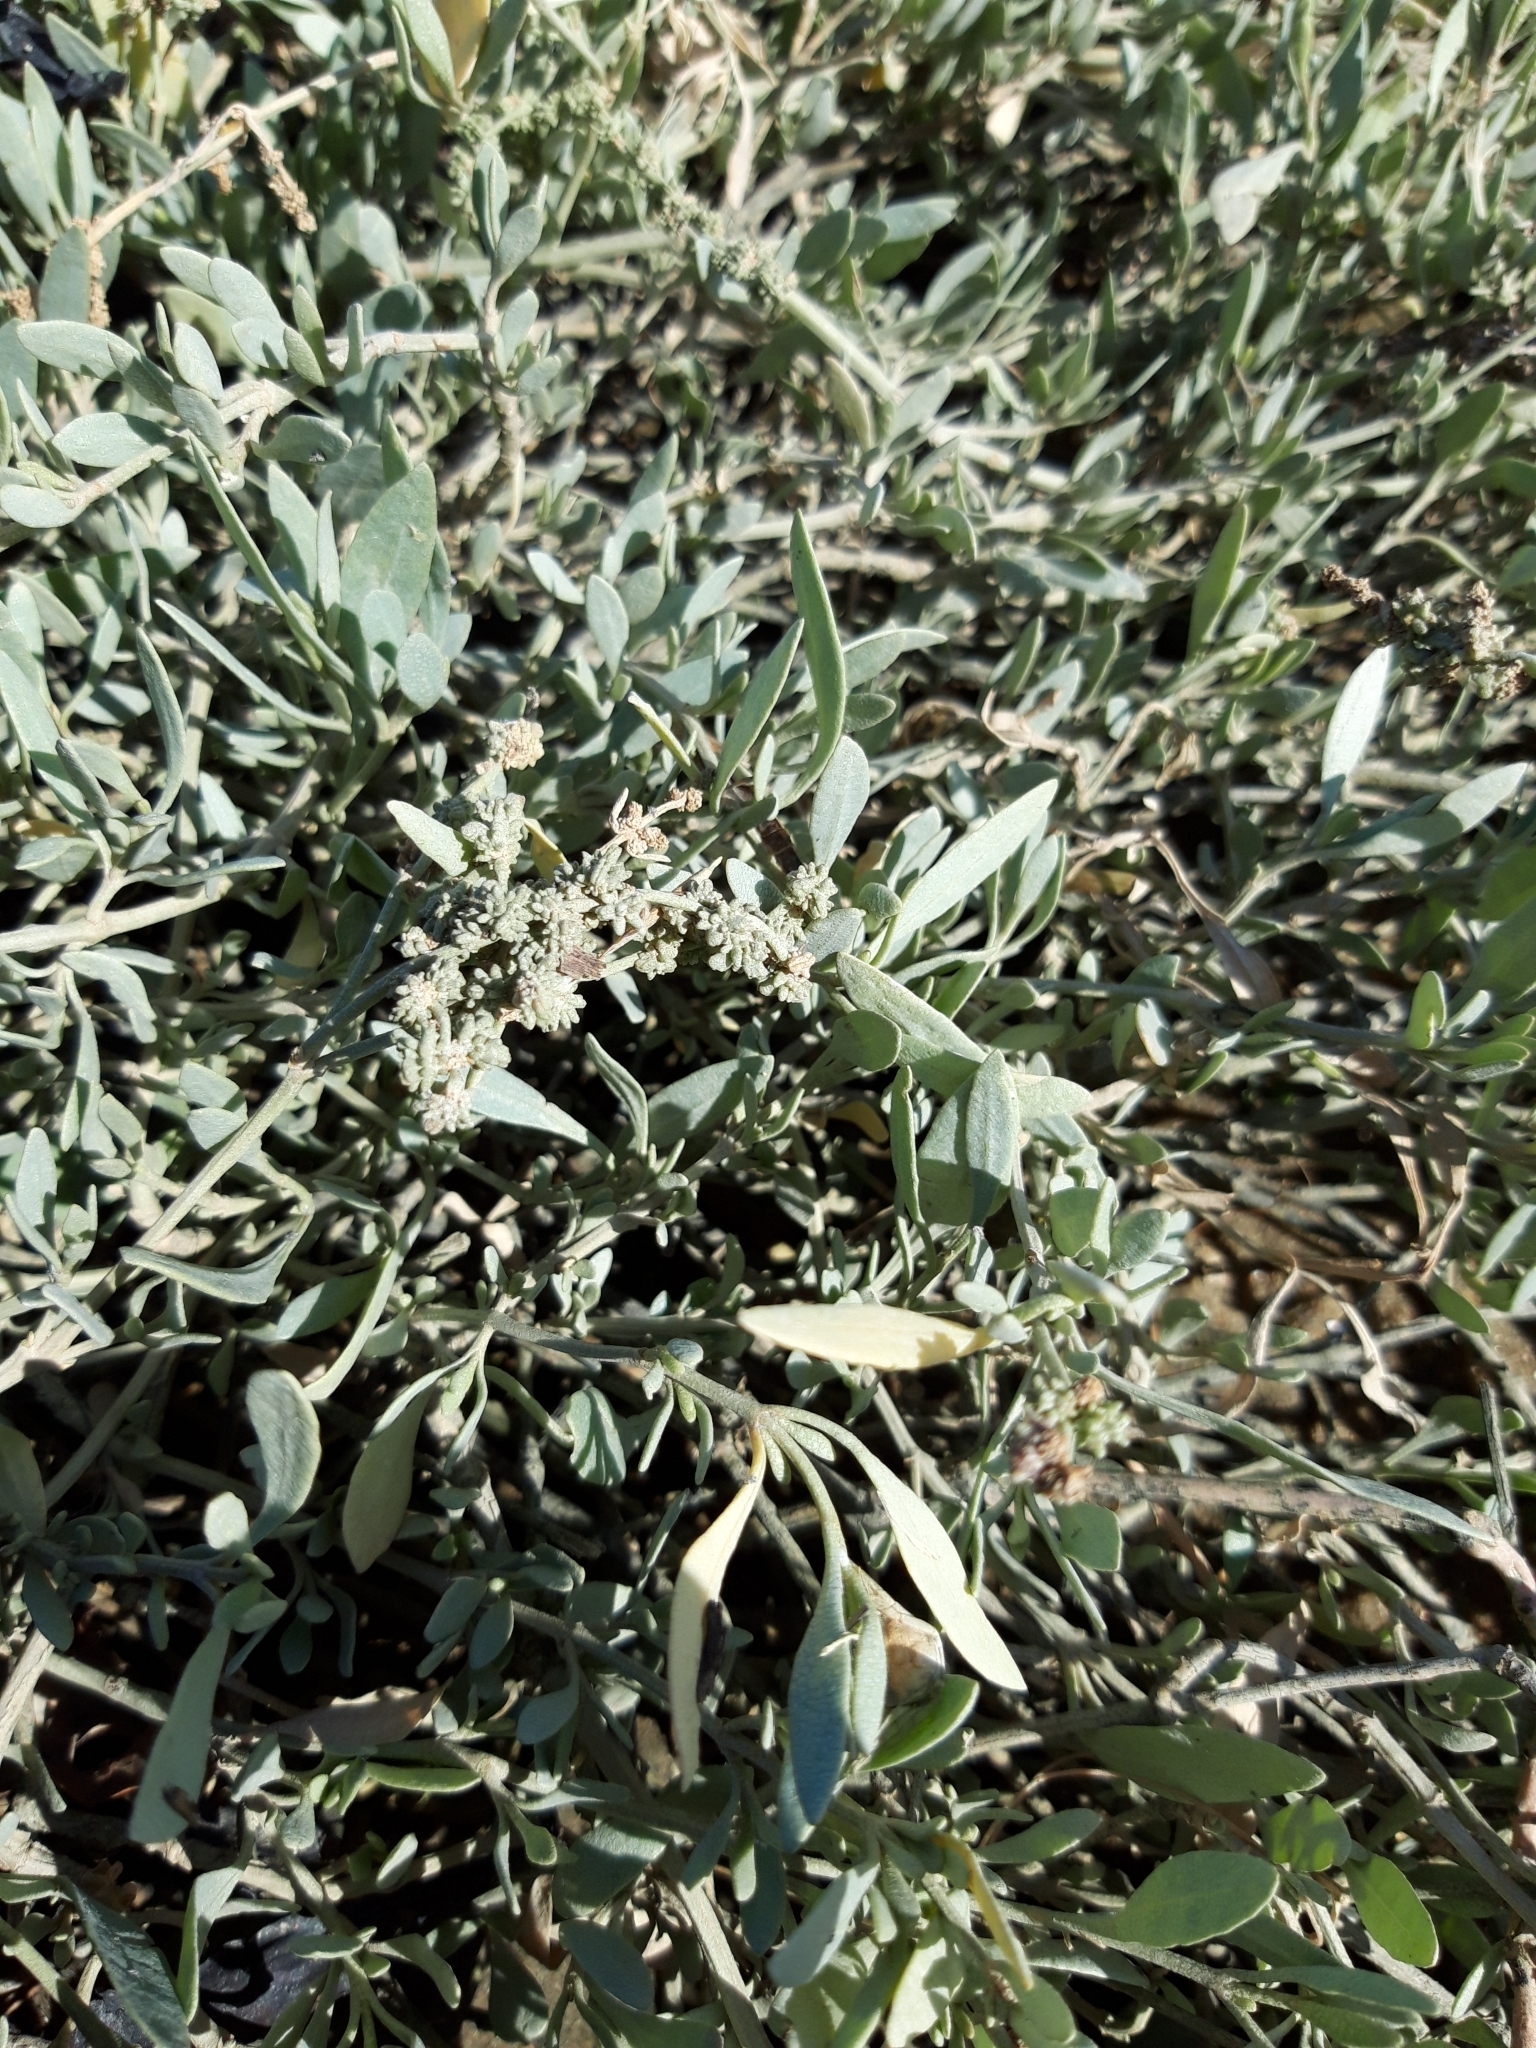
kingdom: Plantae
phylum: Tracheophyta
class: Magnoliopsida
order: Caryophyllales
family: Amaranthaceae
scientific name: Amaranthaceae
